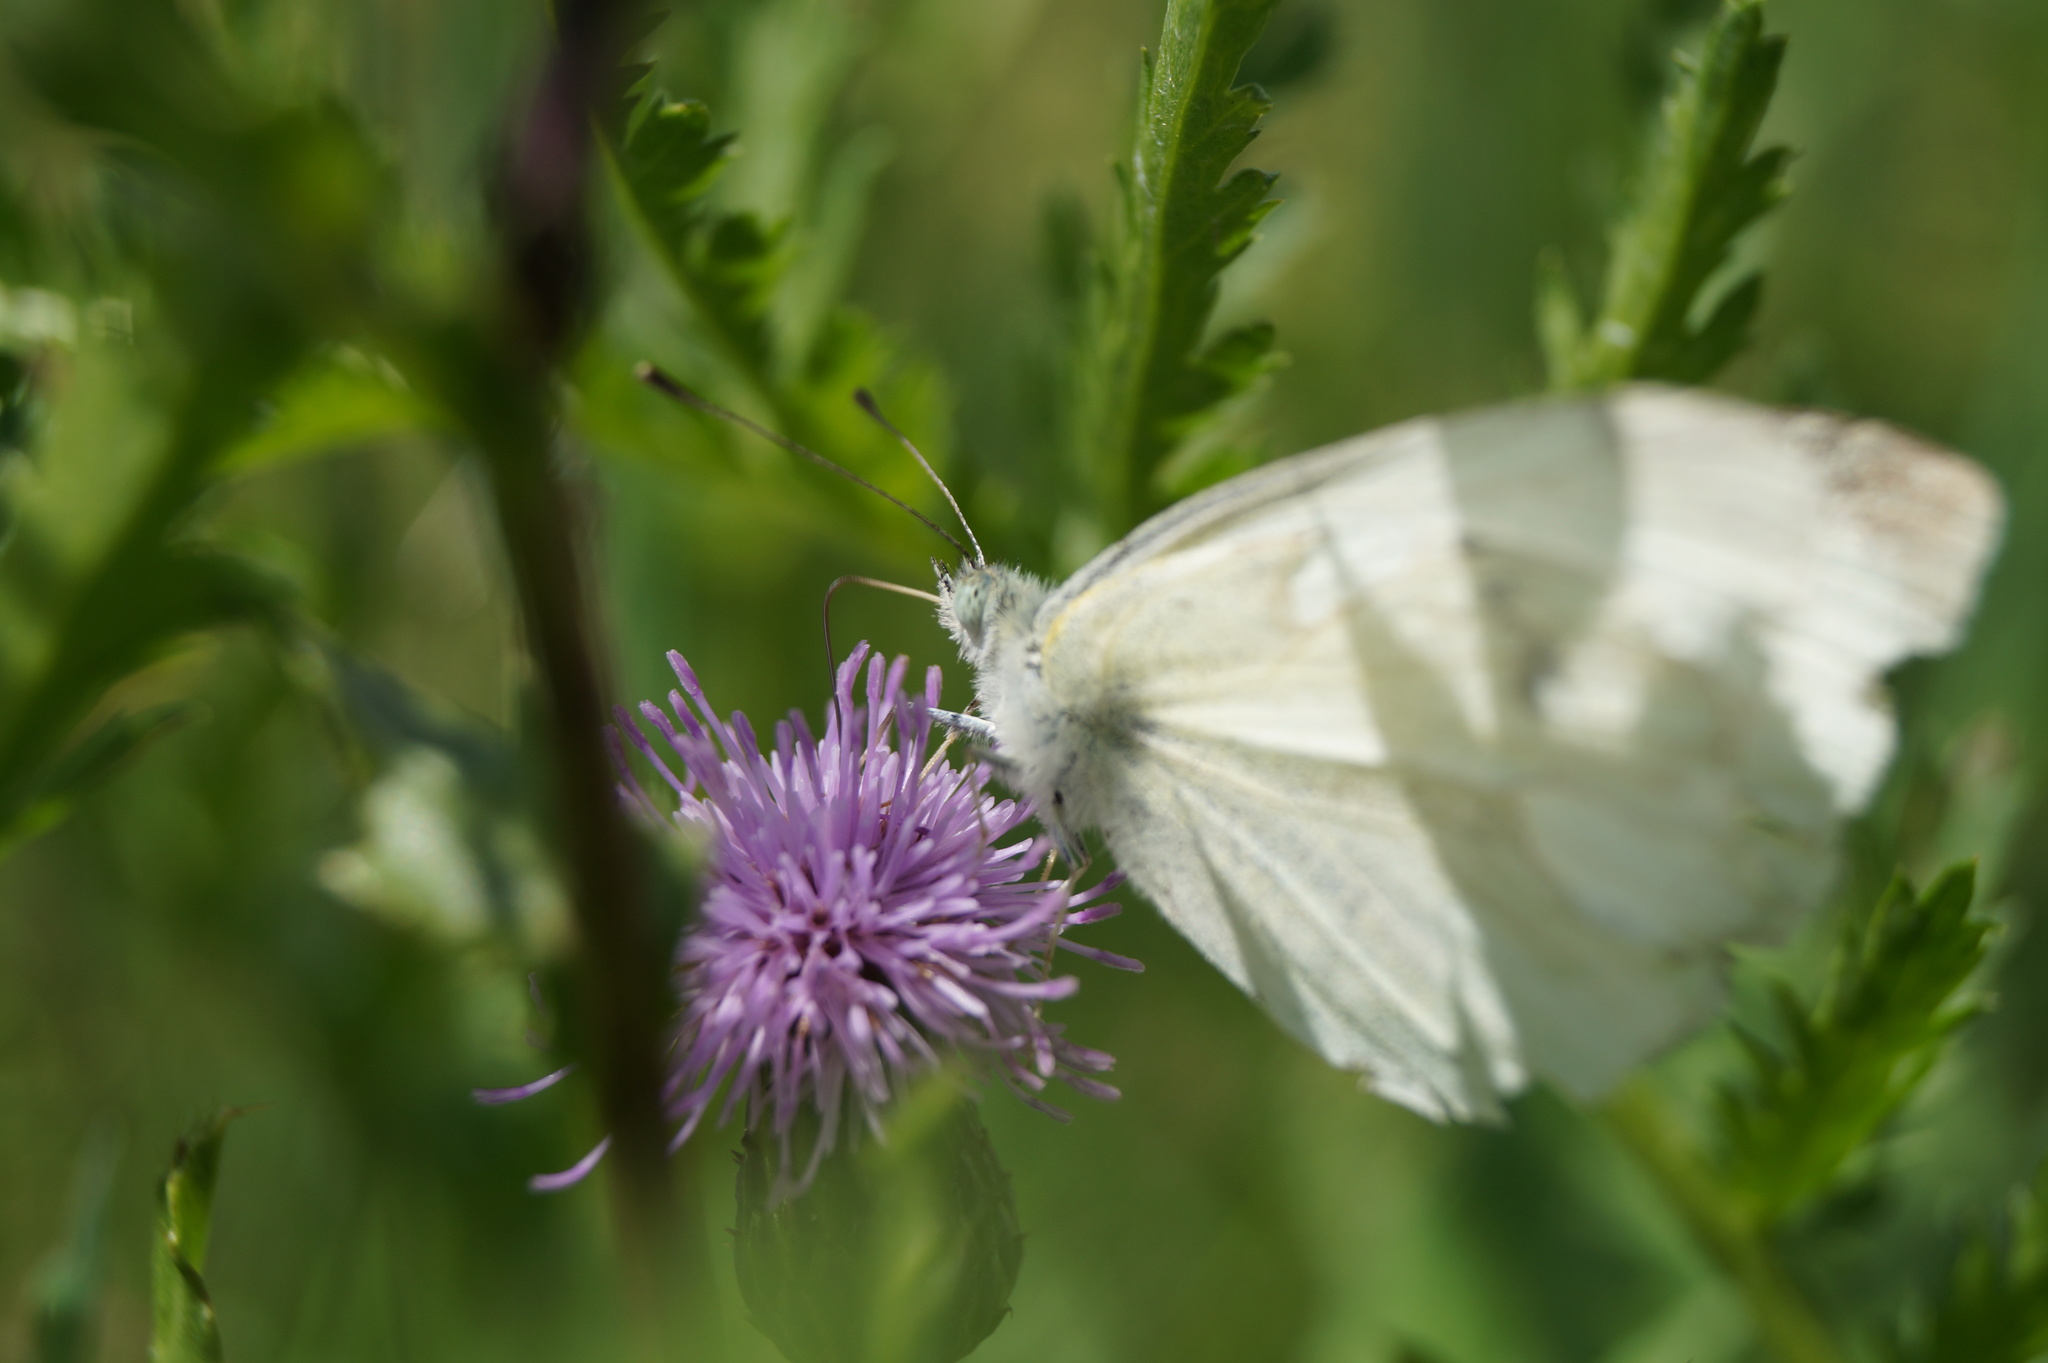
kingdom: Animalia
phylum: Arthropoda
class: Insecta
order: Lepidoptera
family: Pieridae
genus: Pieris
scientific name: Pieris rapae
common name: Small white
